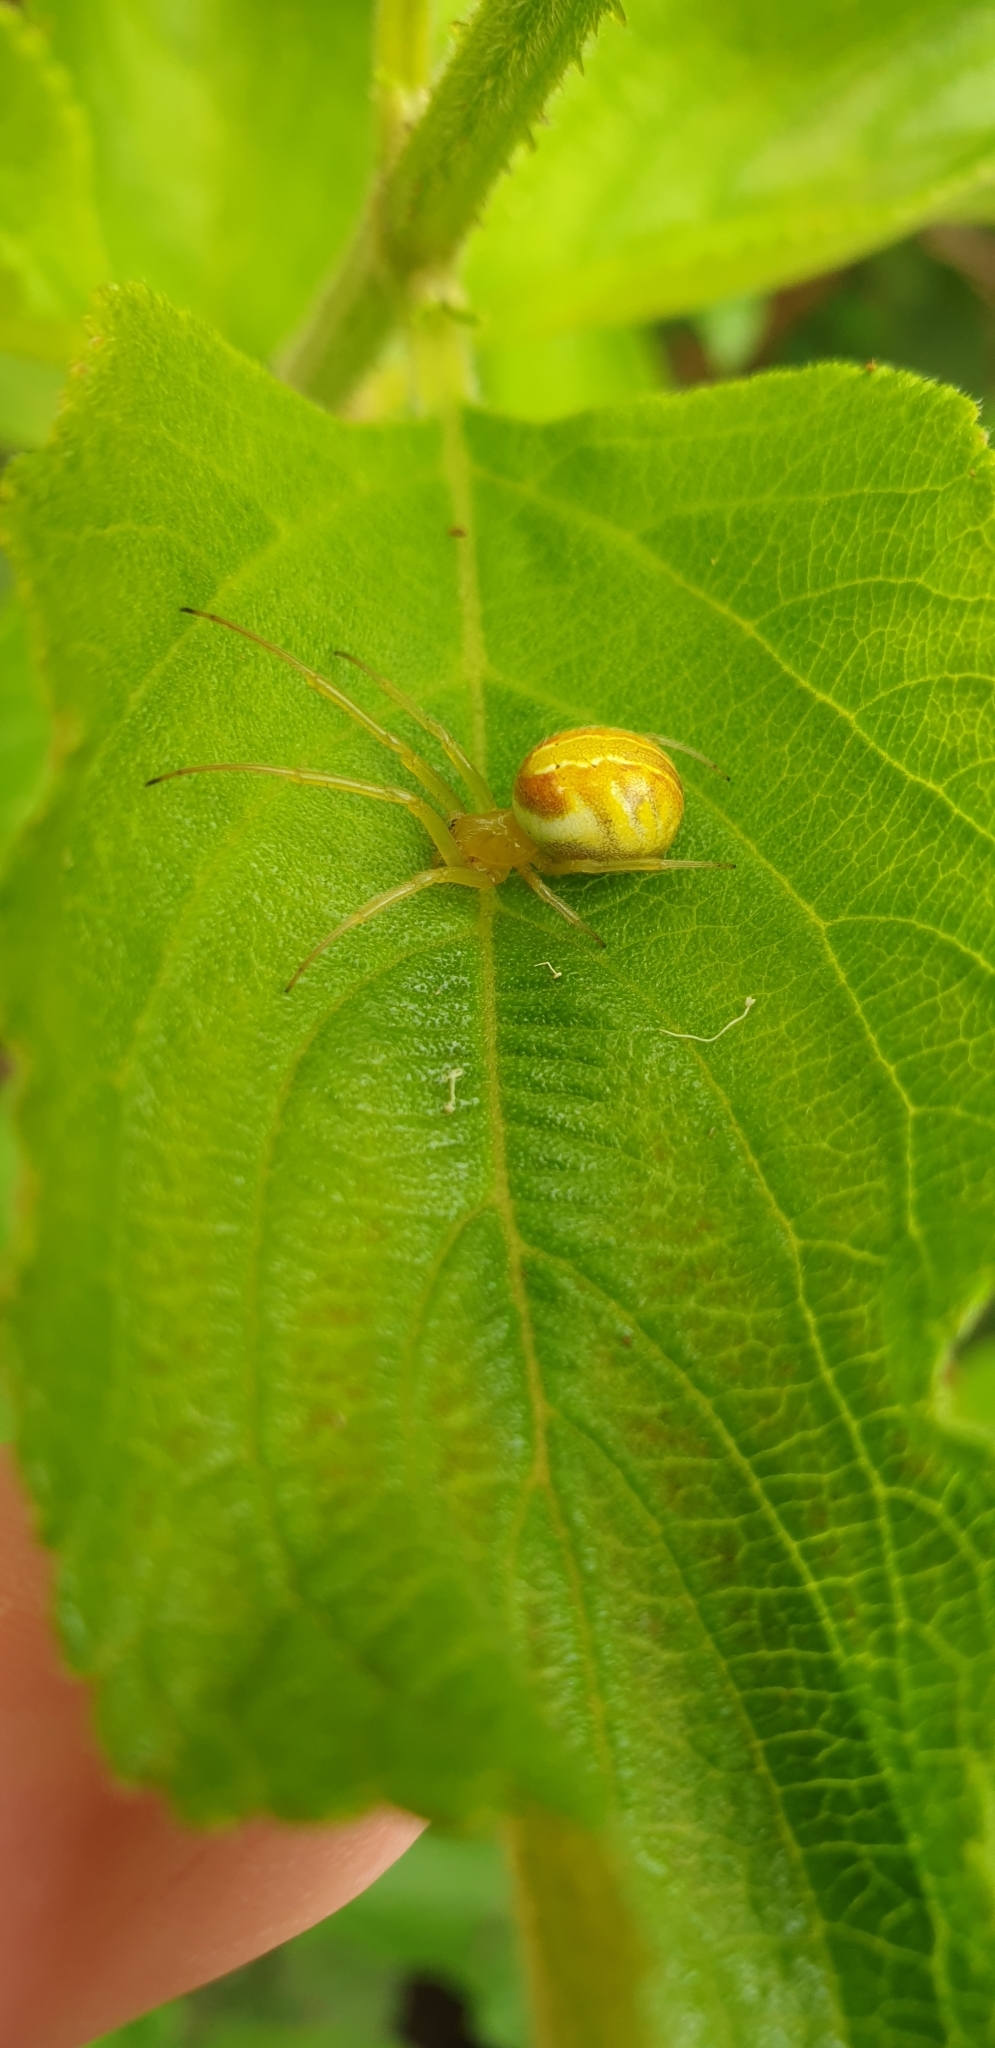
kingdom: Animalia
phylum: Arthropoda
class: Arachnida
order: Araneae
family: Araneidae
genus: Deliochus
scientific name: Deliochus humilis
